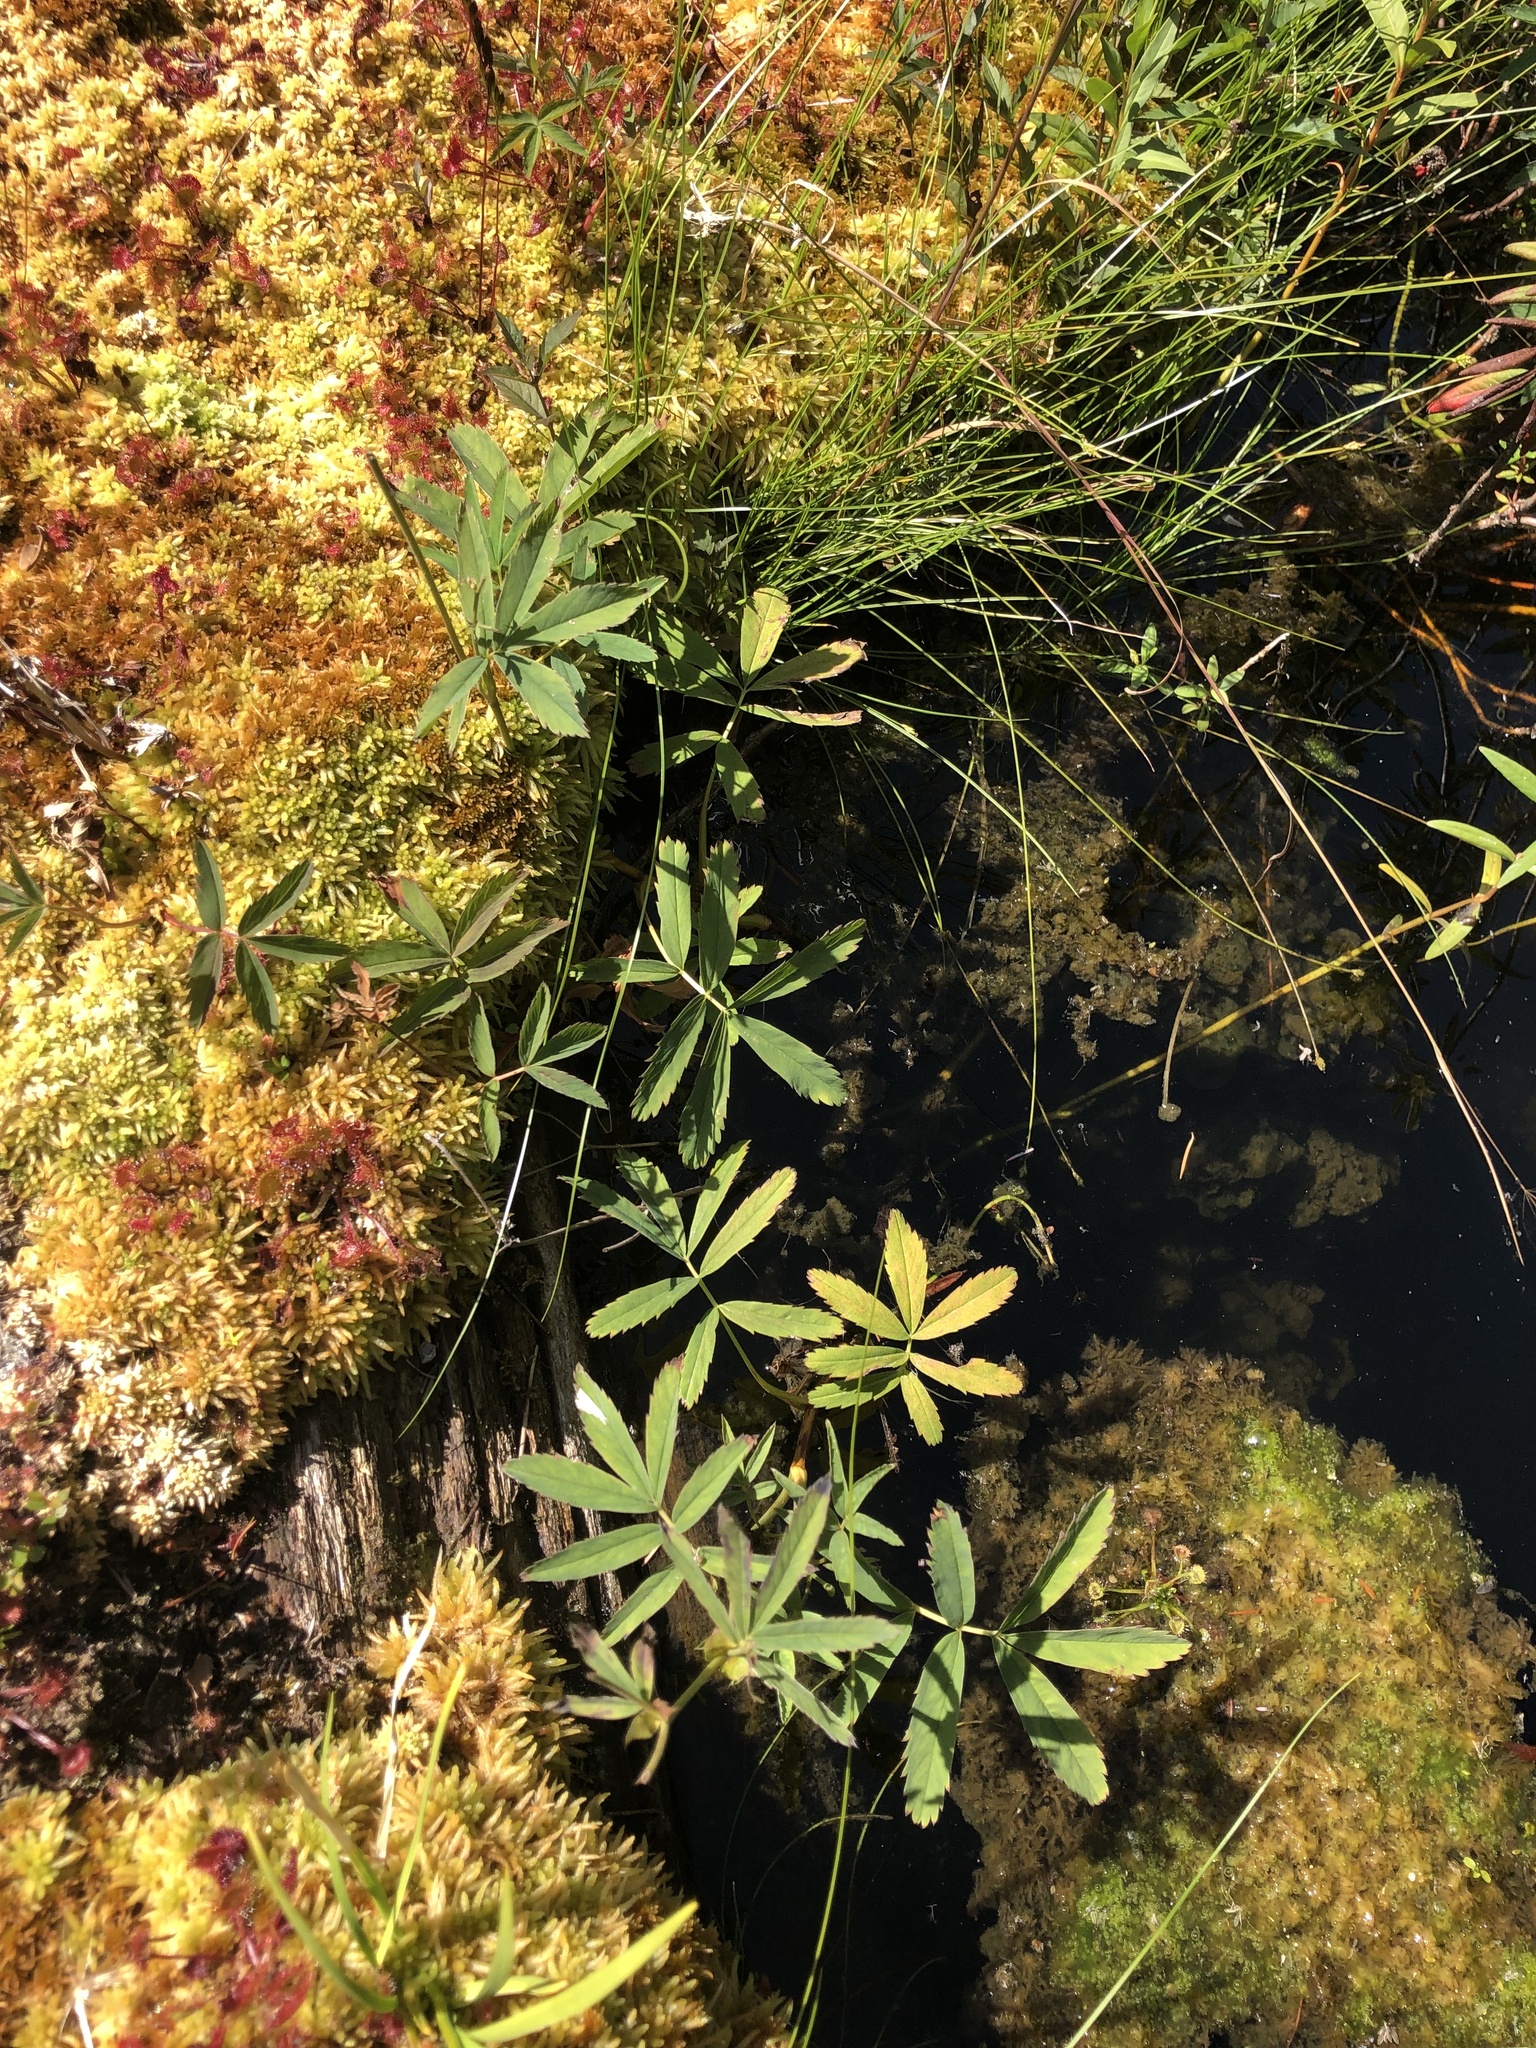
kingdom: Plantae
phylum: Tracheophyta
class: Magnoliopsida
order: Rosales
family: Rosaceae
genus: Comarum
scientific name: Comarum palustre
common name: Marsh cinquefoil
